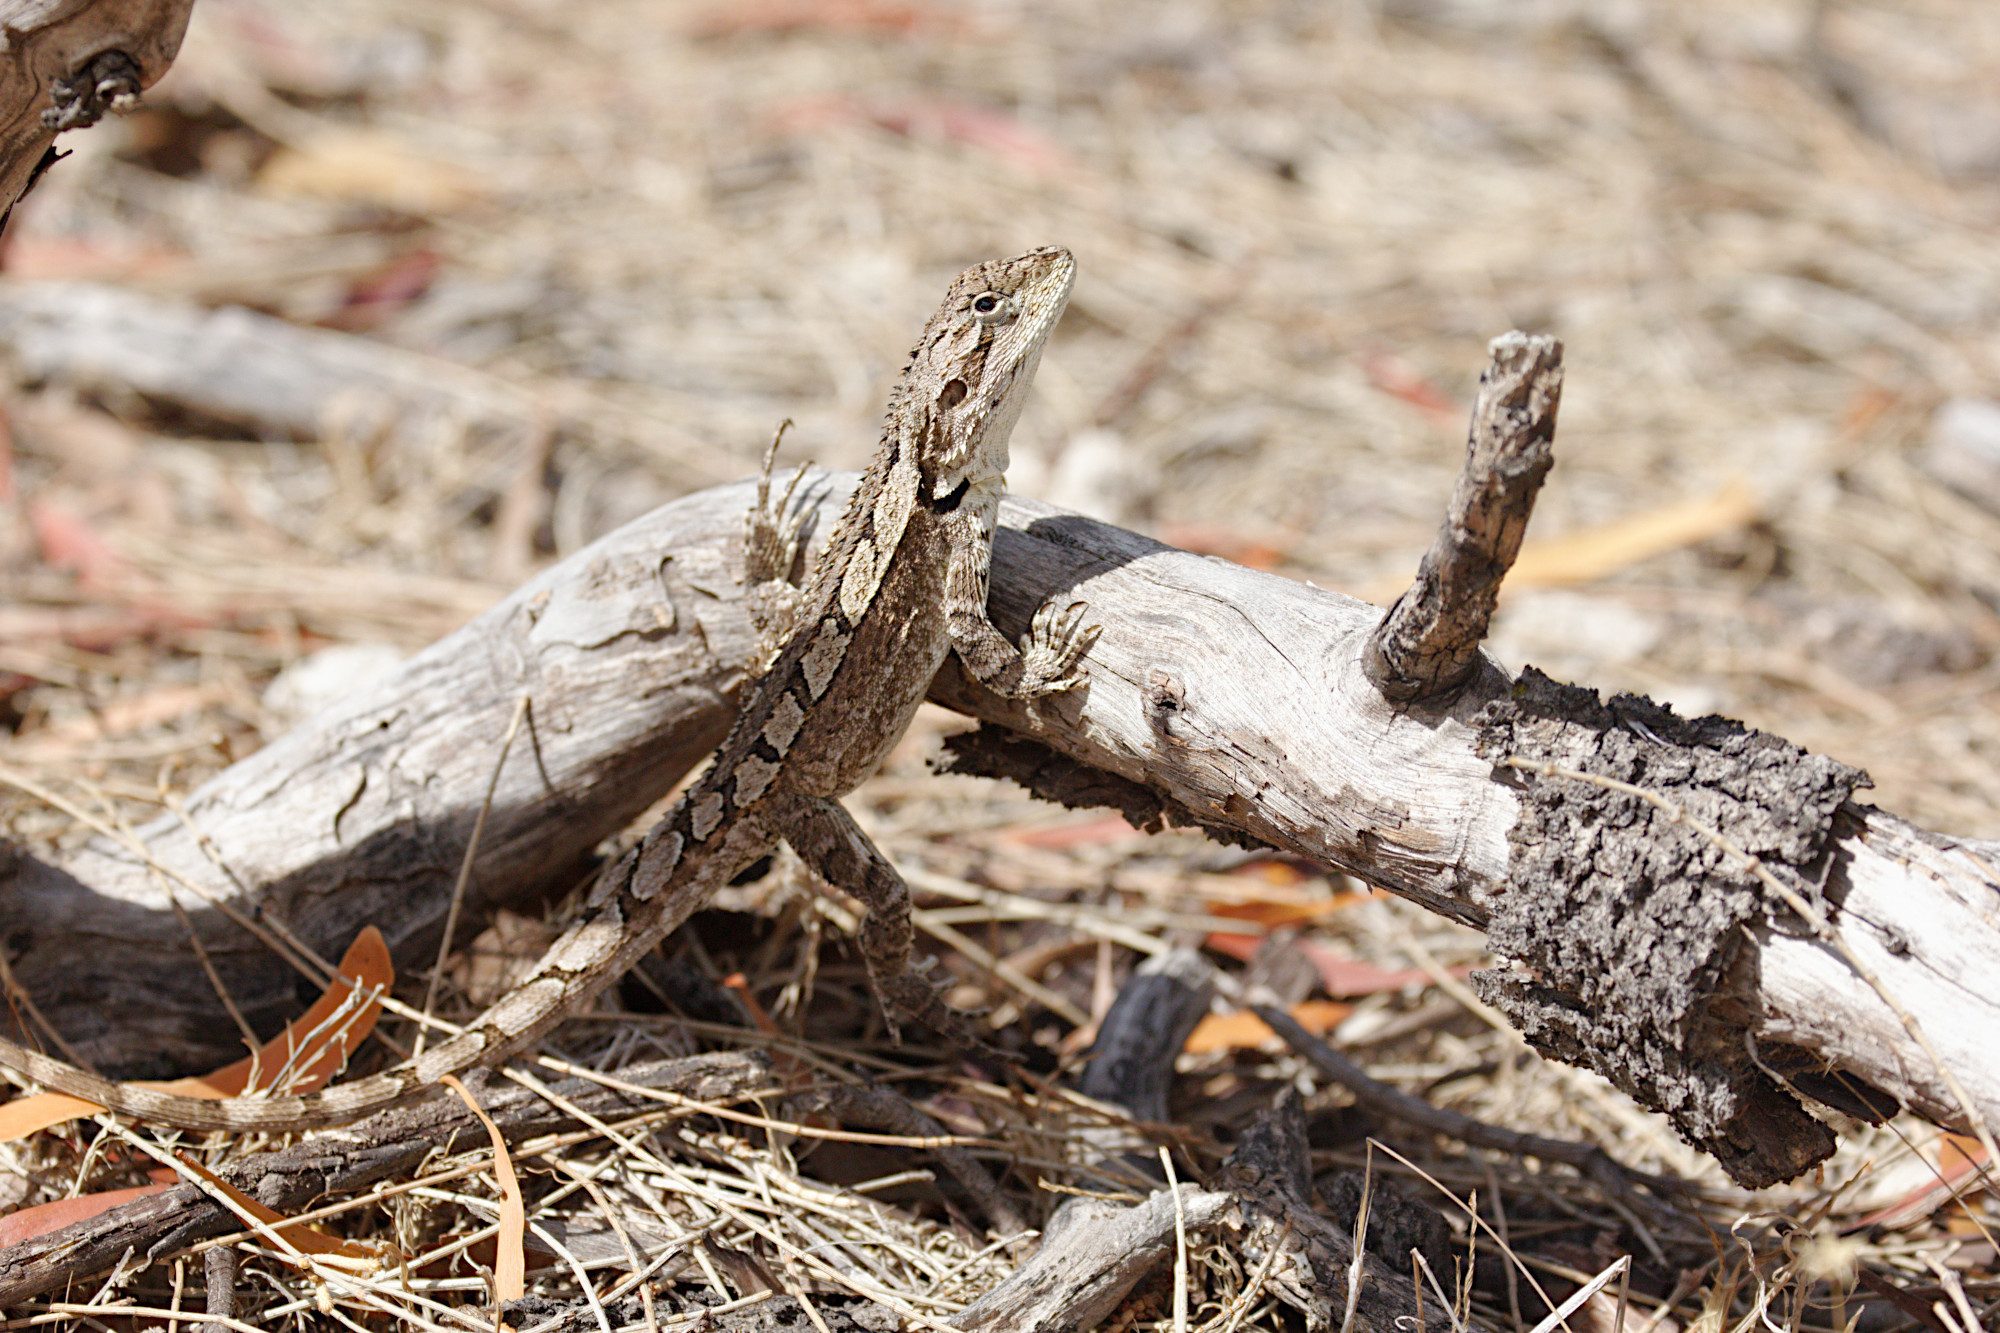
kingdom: Animalia
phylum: Chordata
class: Squamata
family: Agamidae
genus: Amphibolurus
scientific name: Amphibolurus muricatus
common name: Jacky lizard
